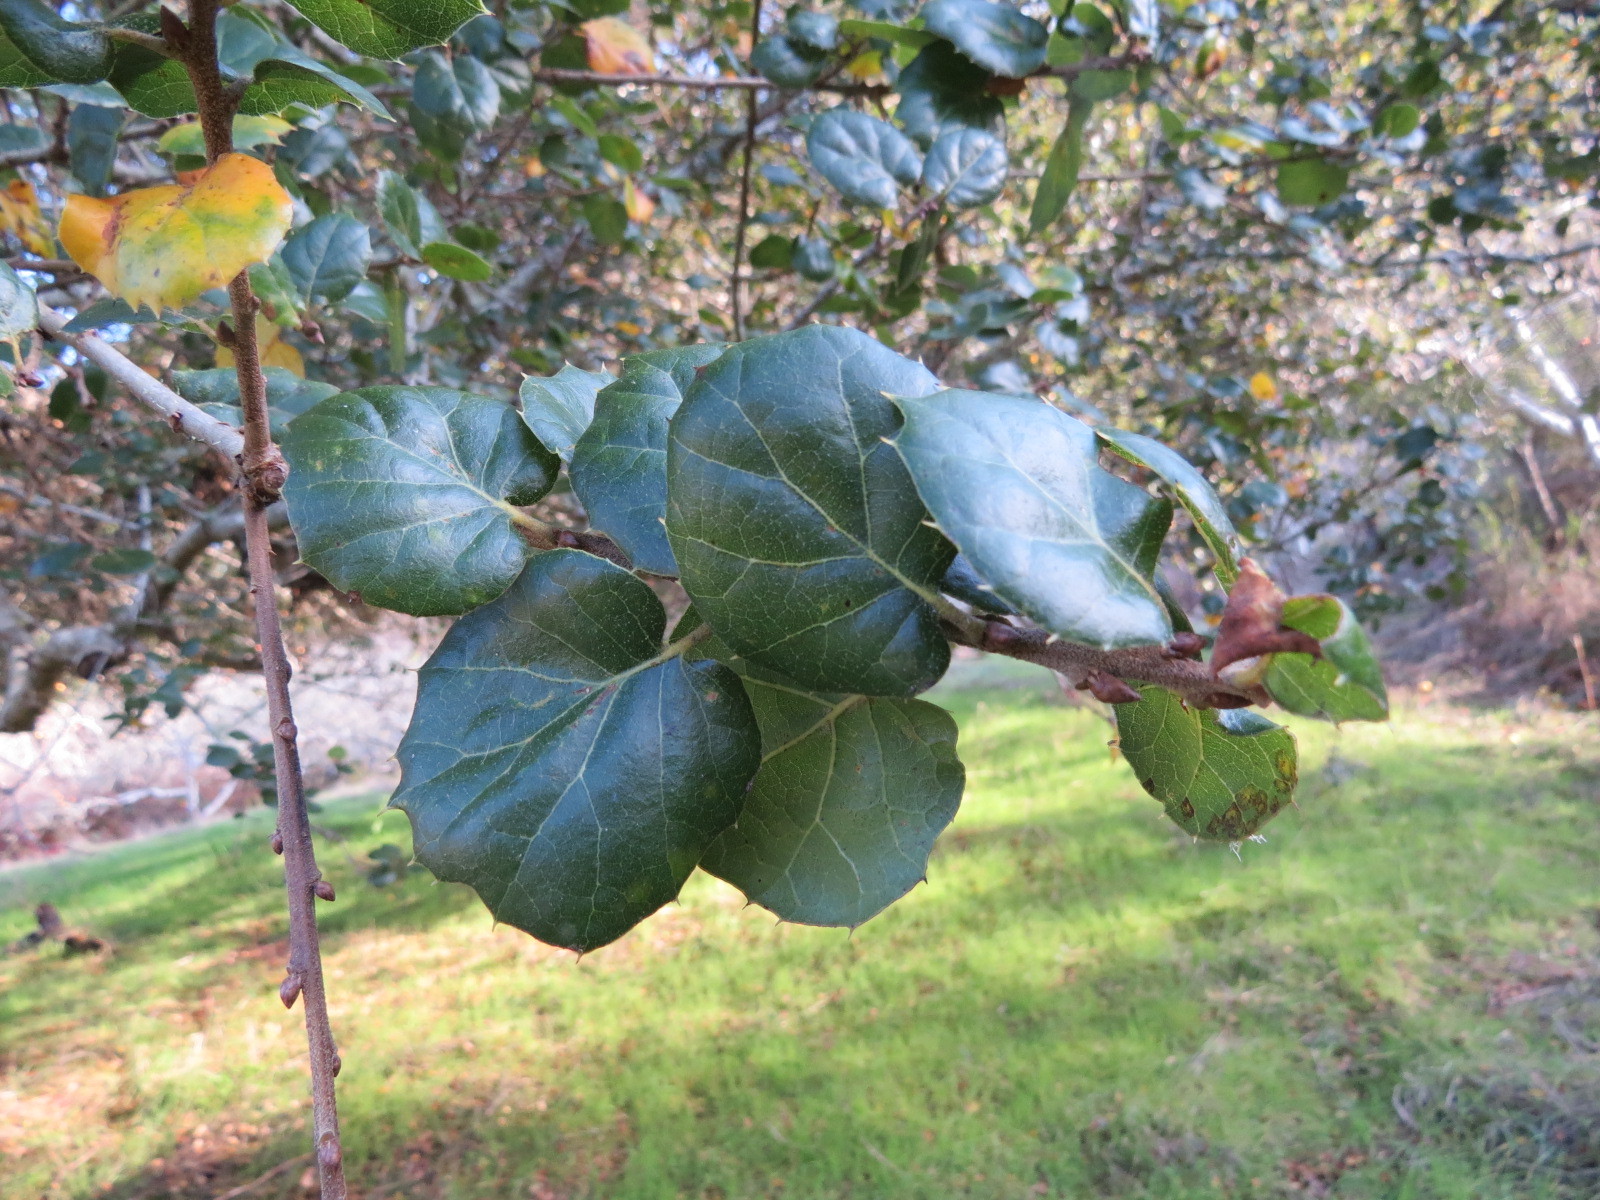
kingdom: Plantae
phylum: Tracheophyta
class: Magnoliopsida
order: Fagales
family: Fagaceae
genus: Quercus
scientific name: Quercus agrifolia
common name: California live oak
